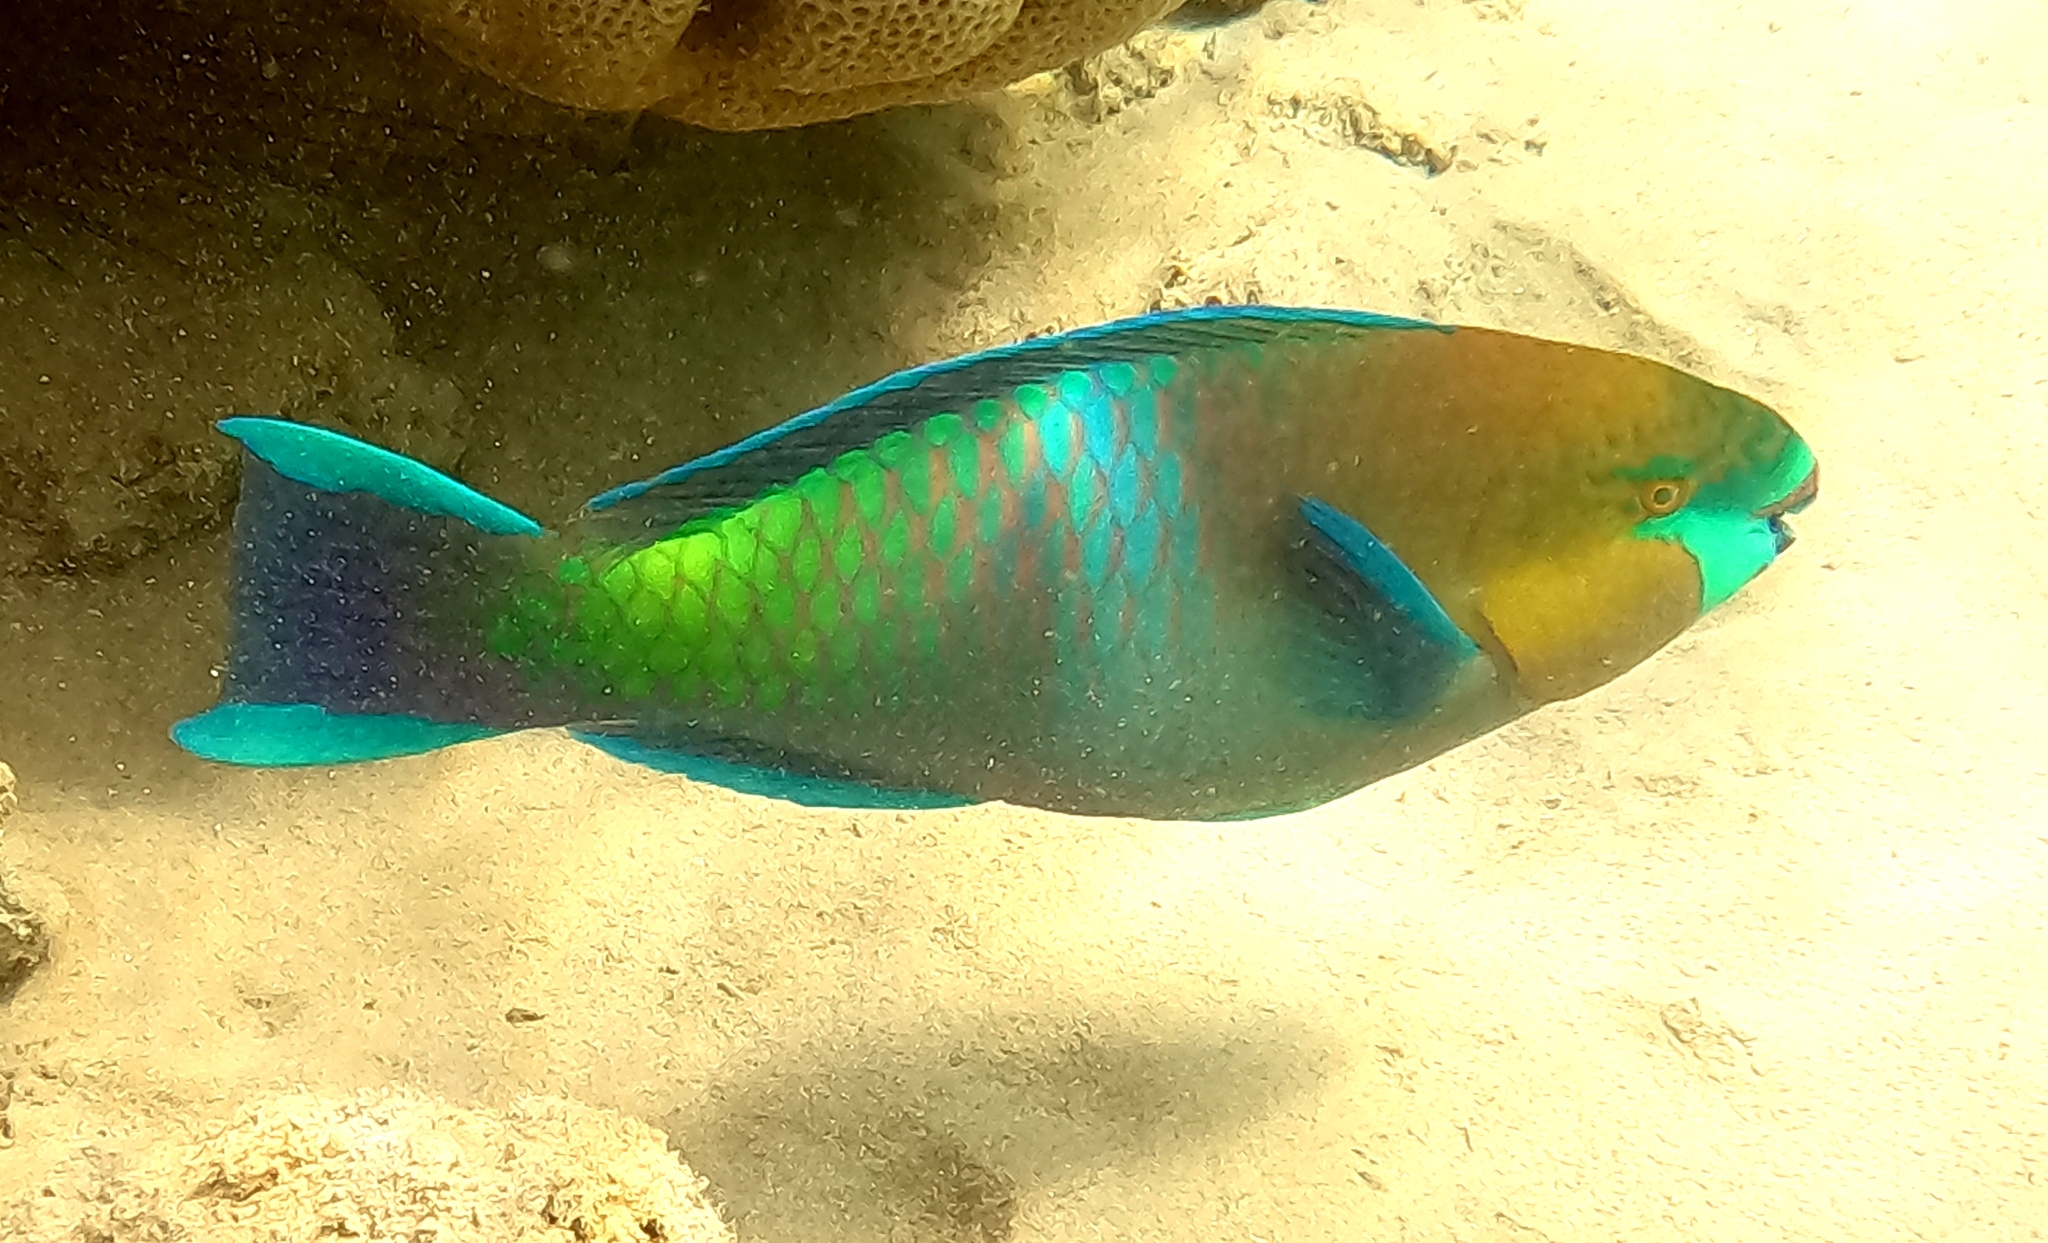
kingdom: Animalia
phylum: Chordata
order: Perciformes
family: Scaridae
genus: Scarus
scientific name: Scarus ferrugineus
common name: Rusty parrotfish
